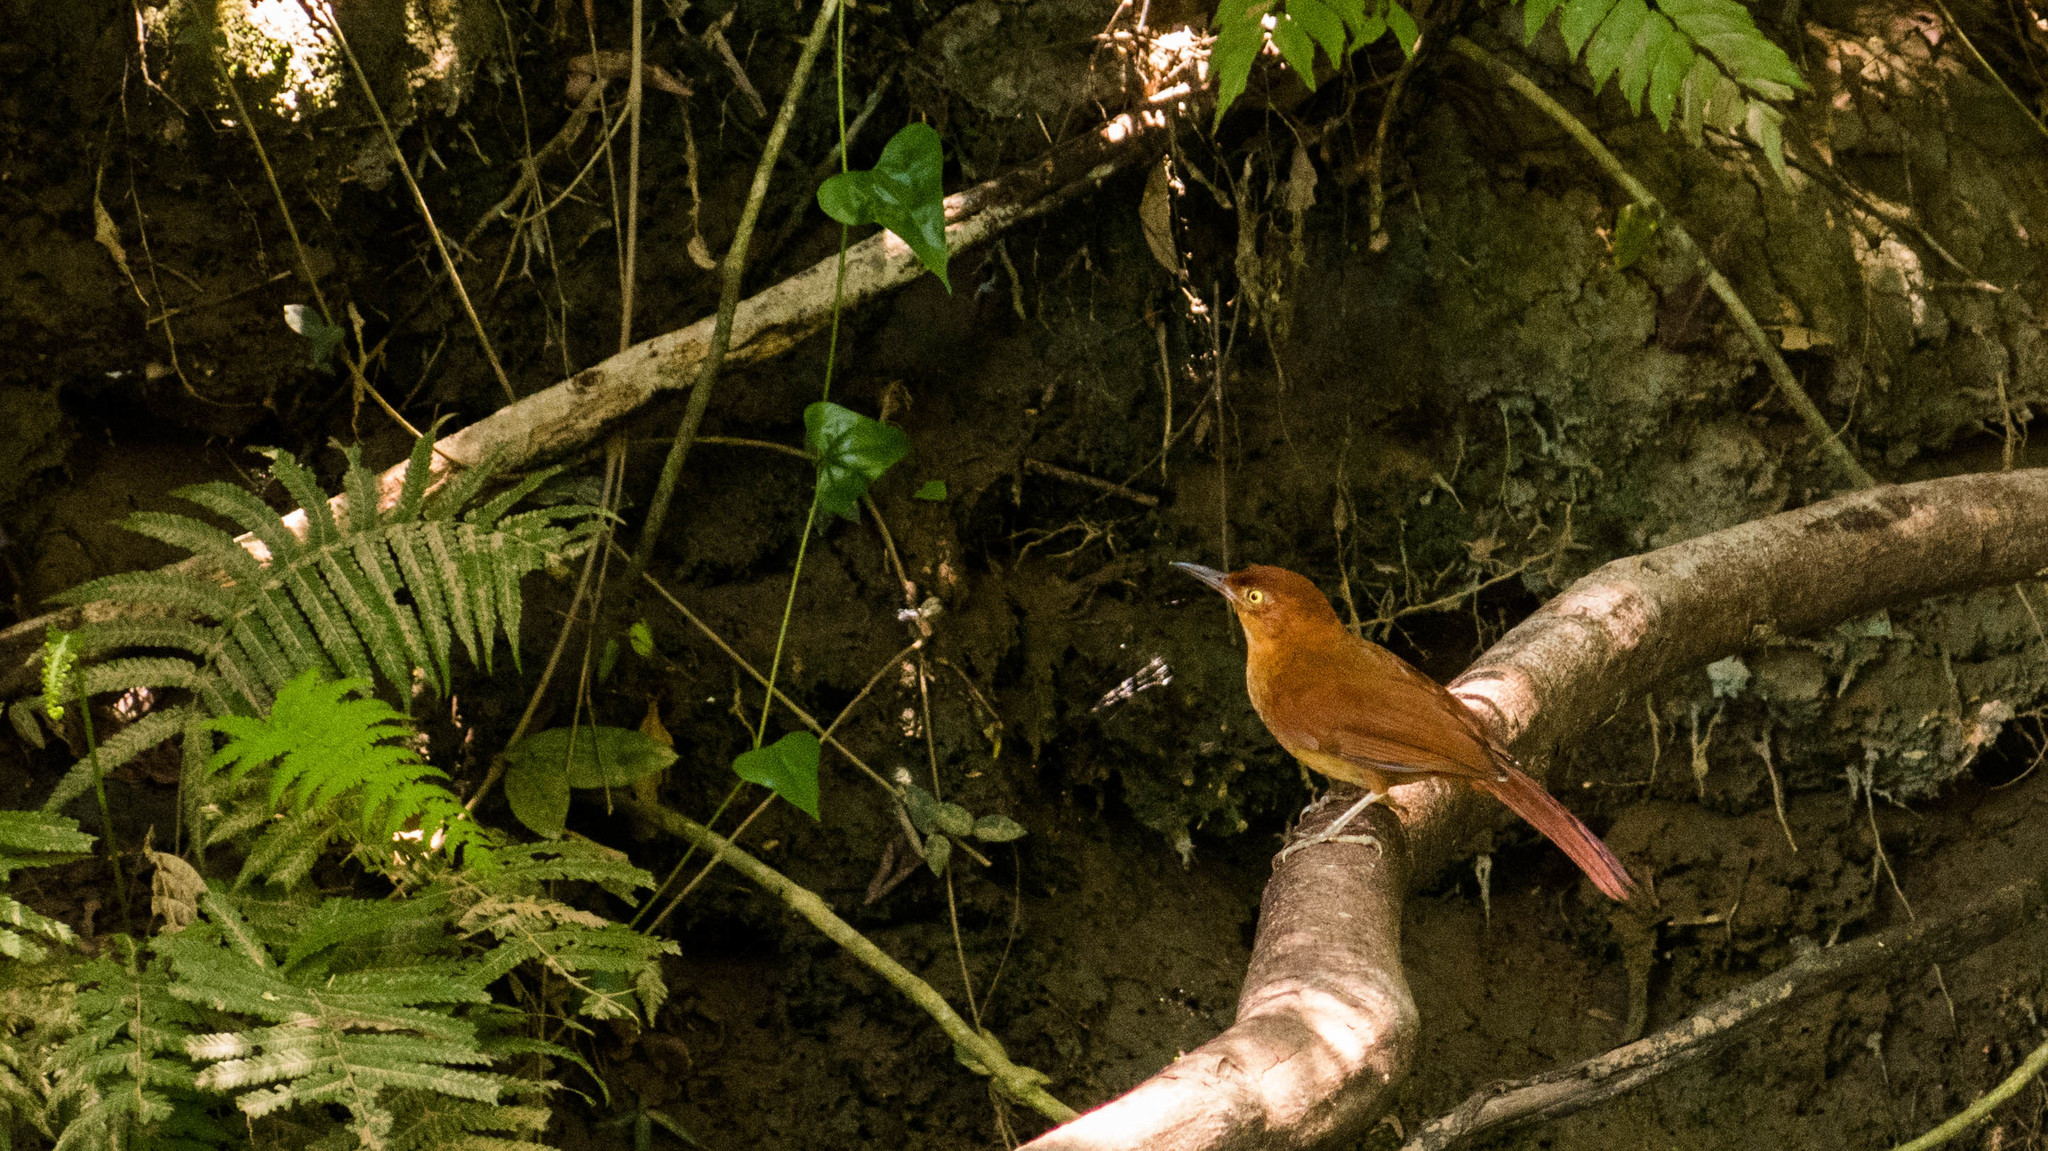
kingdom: Animalia
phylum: Chordata
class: Aves
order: Passeriformes
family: Furnariidae
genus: Hylocryptus
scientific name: Hylocryptus rectirostris
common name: Henna-capped foliage-gleaner
